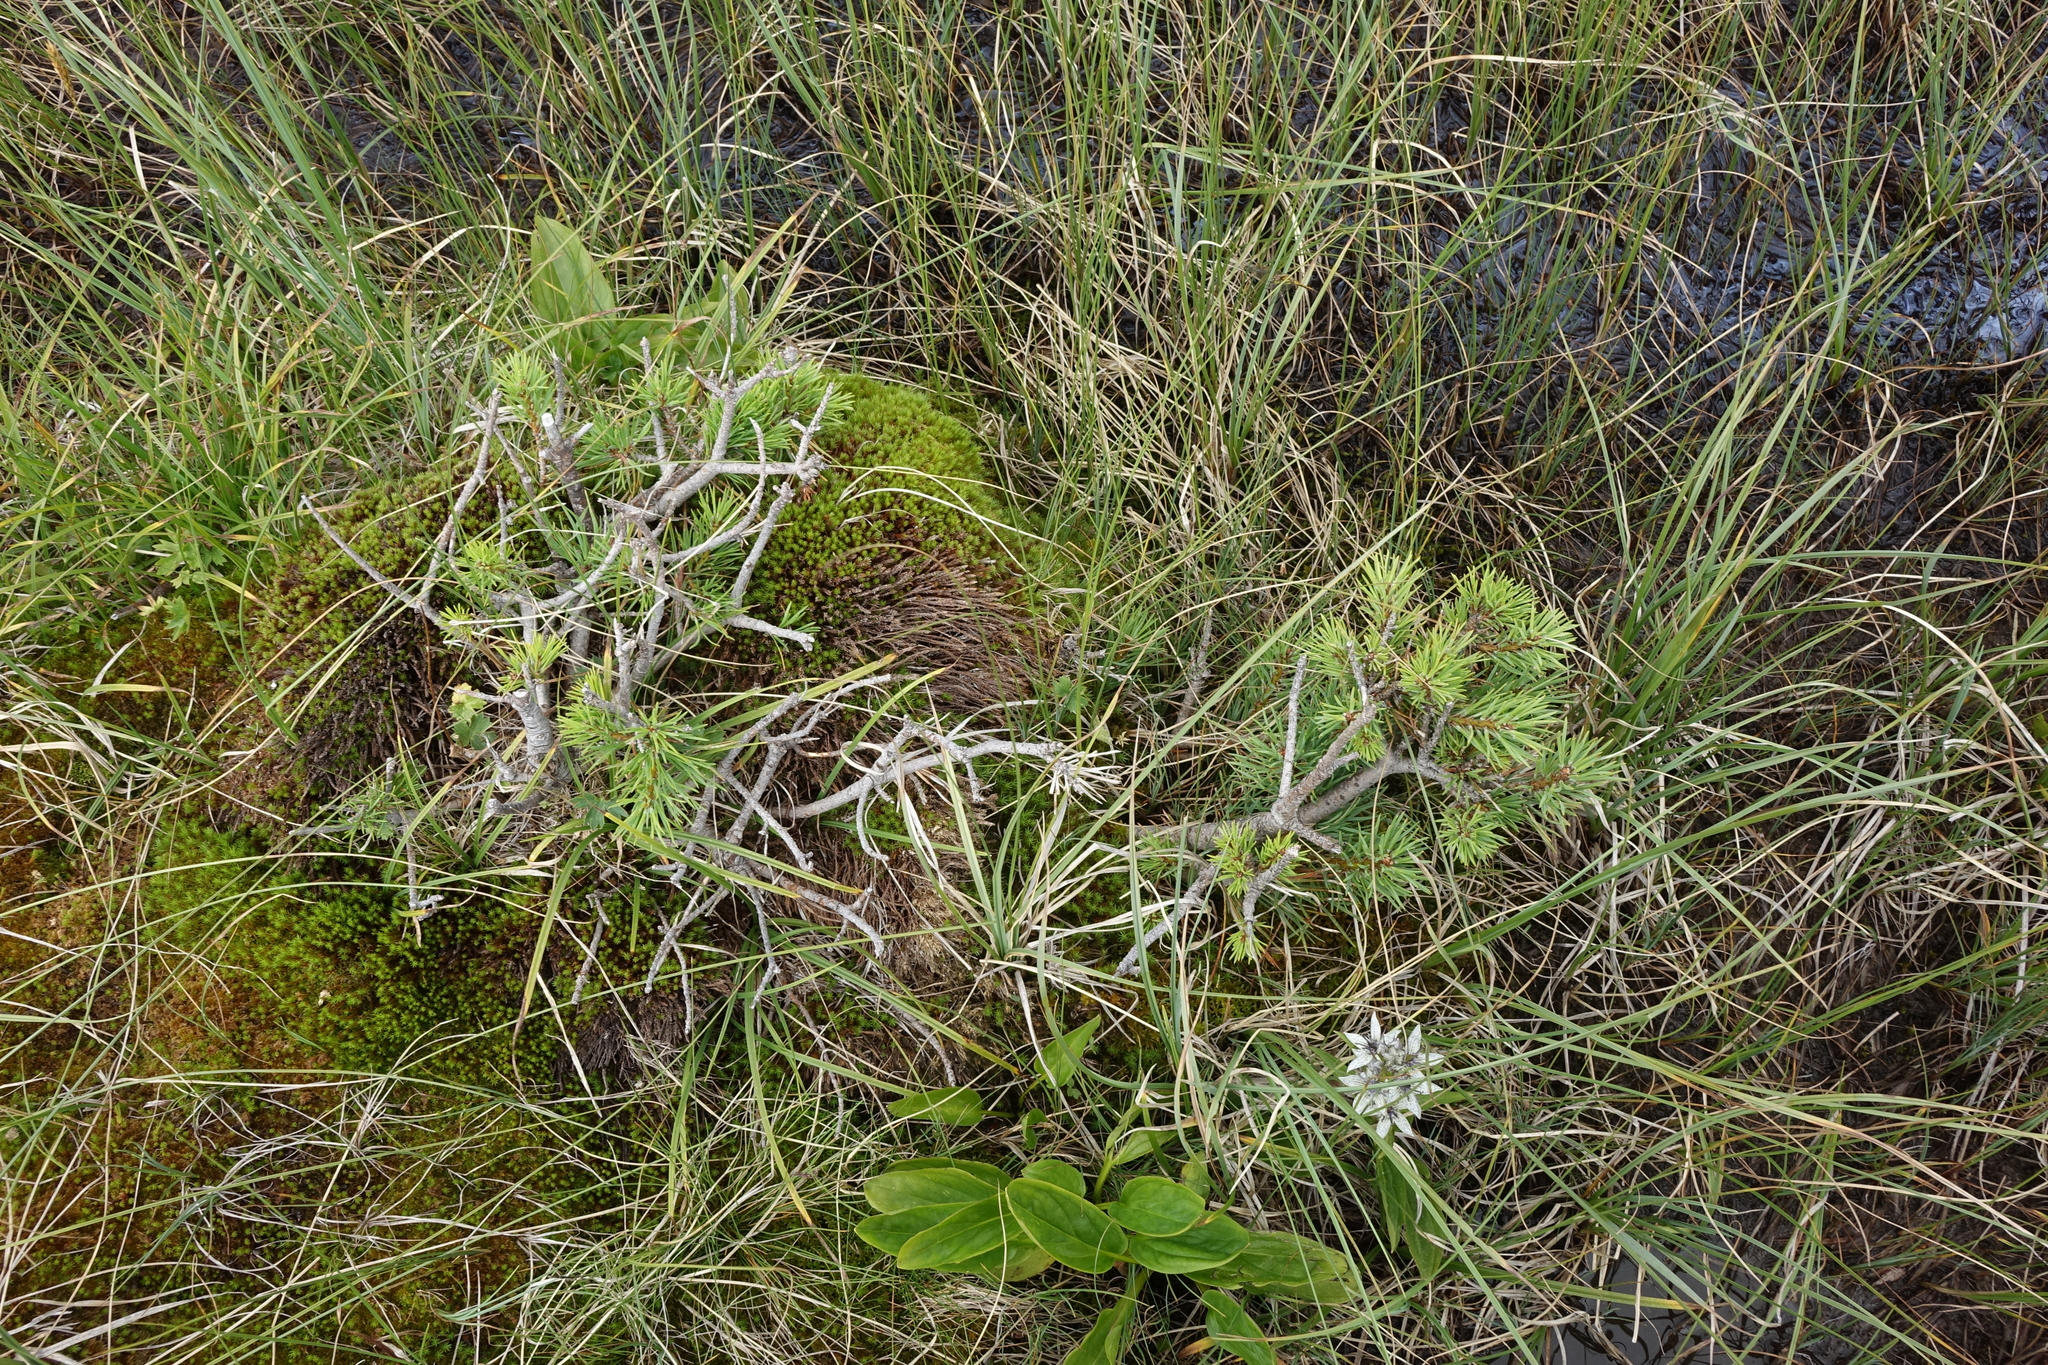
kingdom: Plantae
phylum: Tracheophyta
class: Pinopsida
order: Pinales
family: Pinaceae
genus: Pinus
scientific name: Pinus sylvestris
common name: Scots pine
